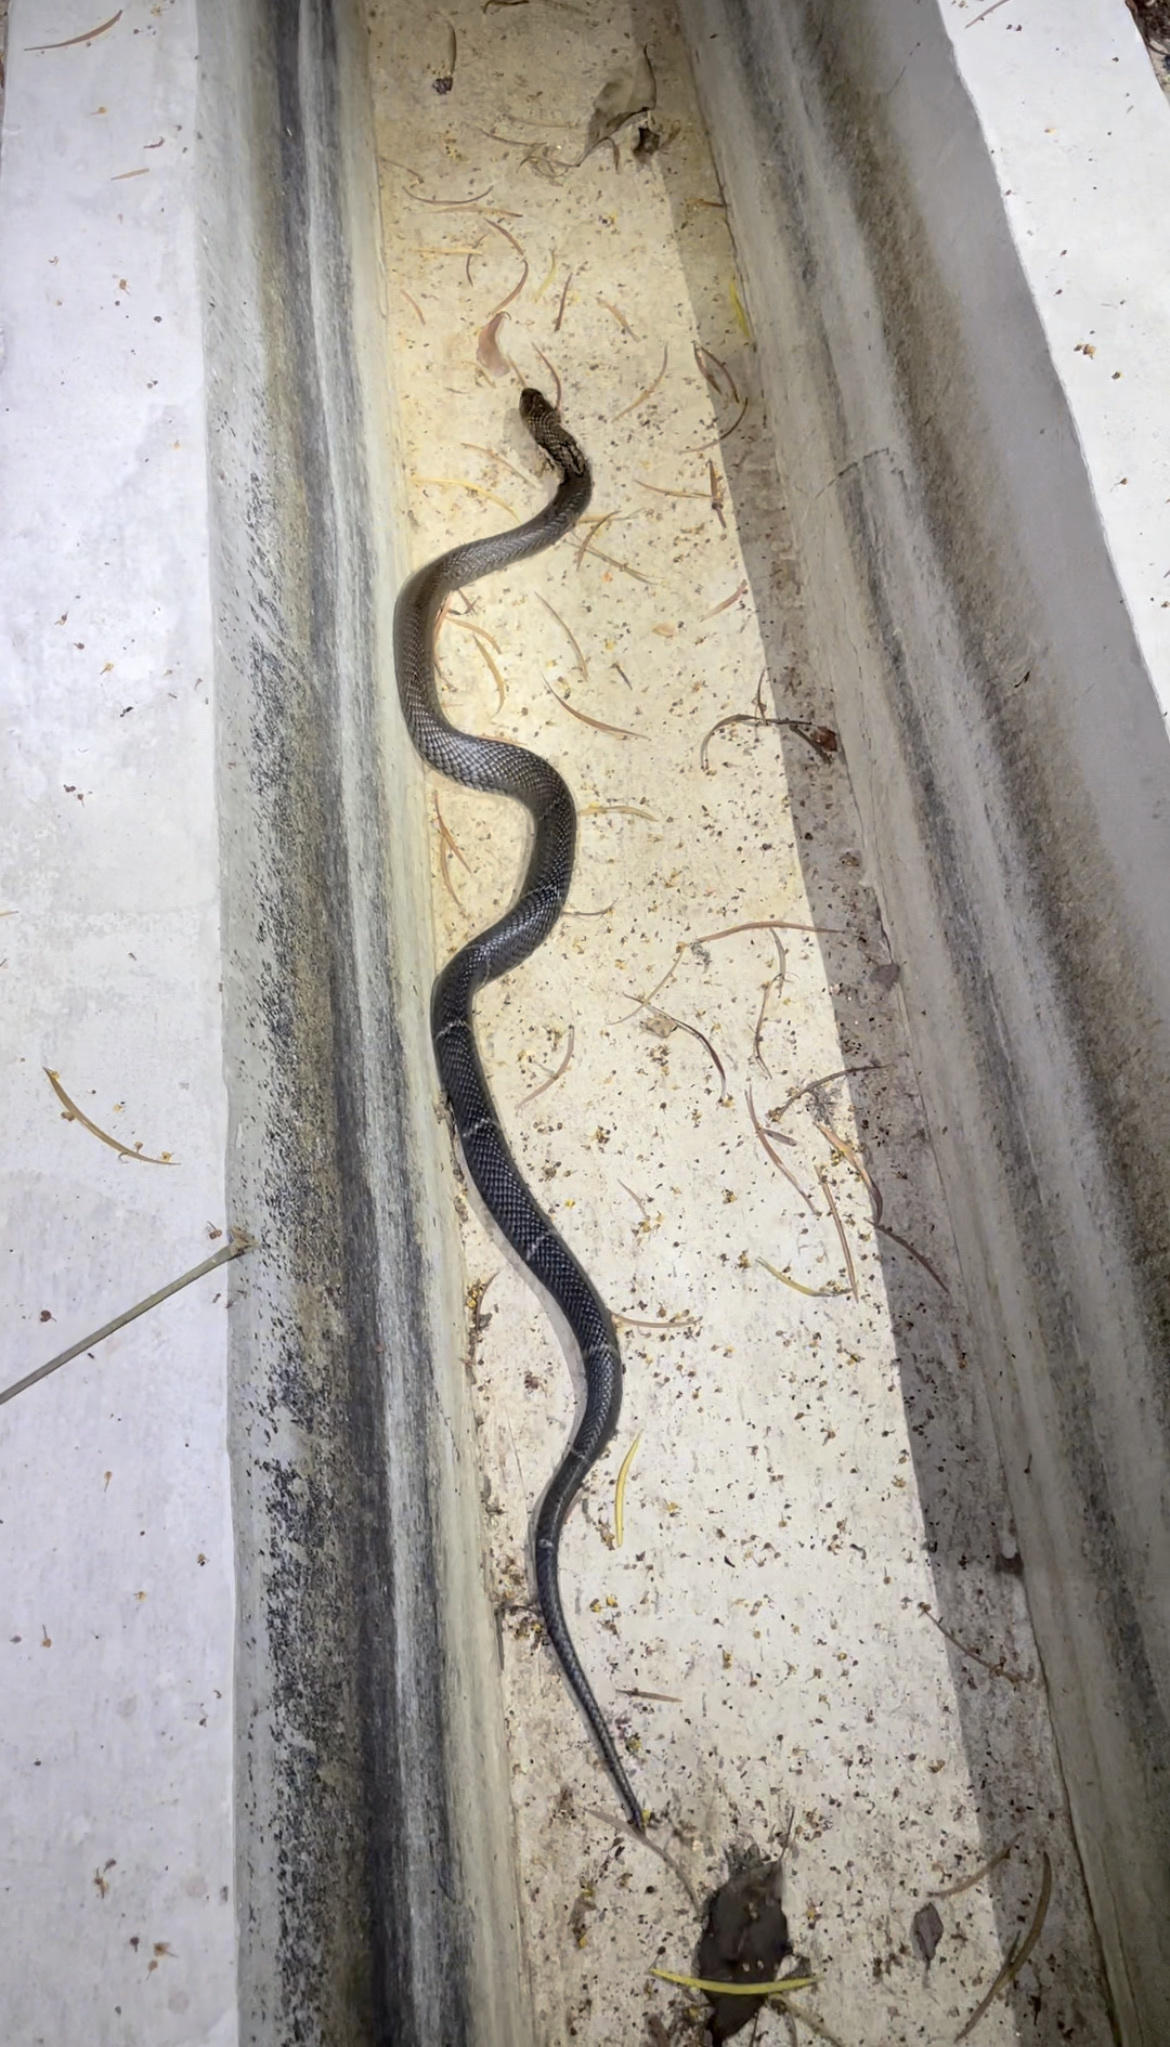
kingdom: Animalia
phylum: Chordata
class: Squamata
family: Elapidae
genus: Naja
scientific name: Naja atra
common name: Chinese cobra
